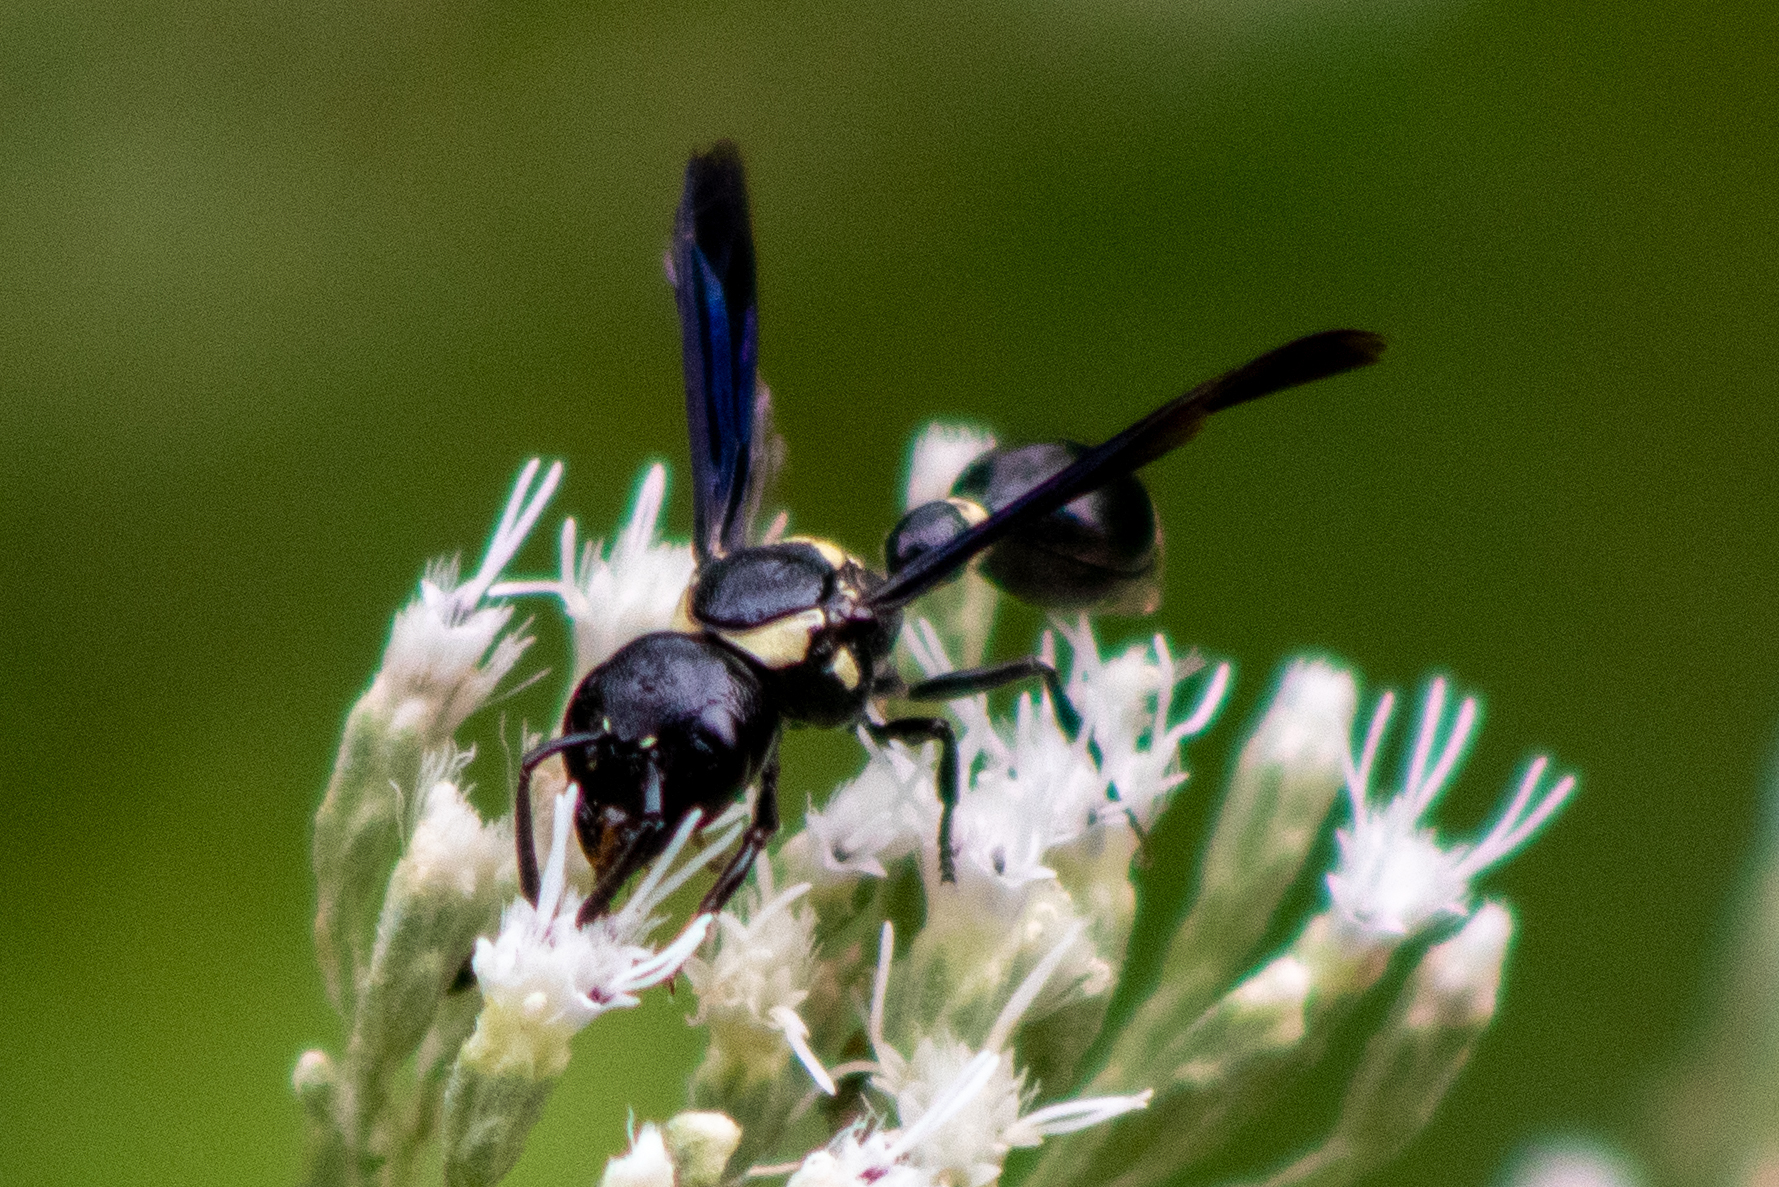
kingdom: Animalia
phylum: Arthropoda
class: Insecta
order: Hymenoptera
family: Eumenidae
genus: Zethus
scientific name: Zethus spinipes
